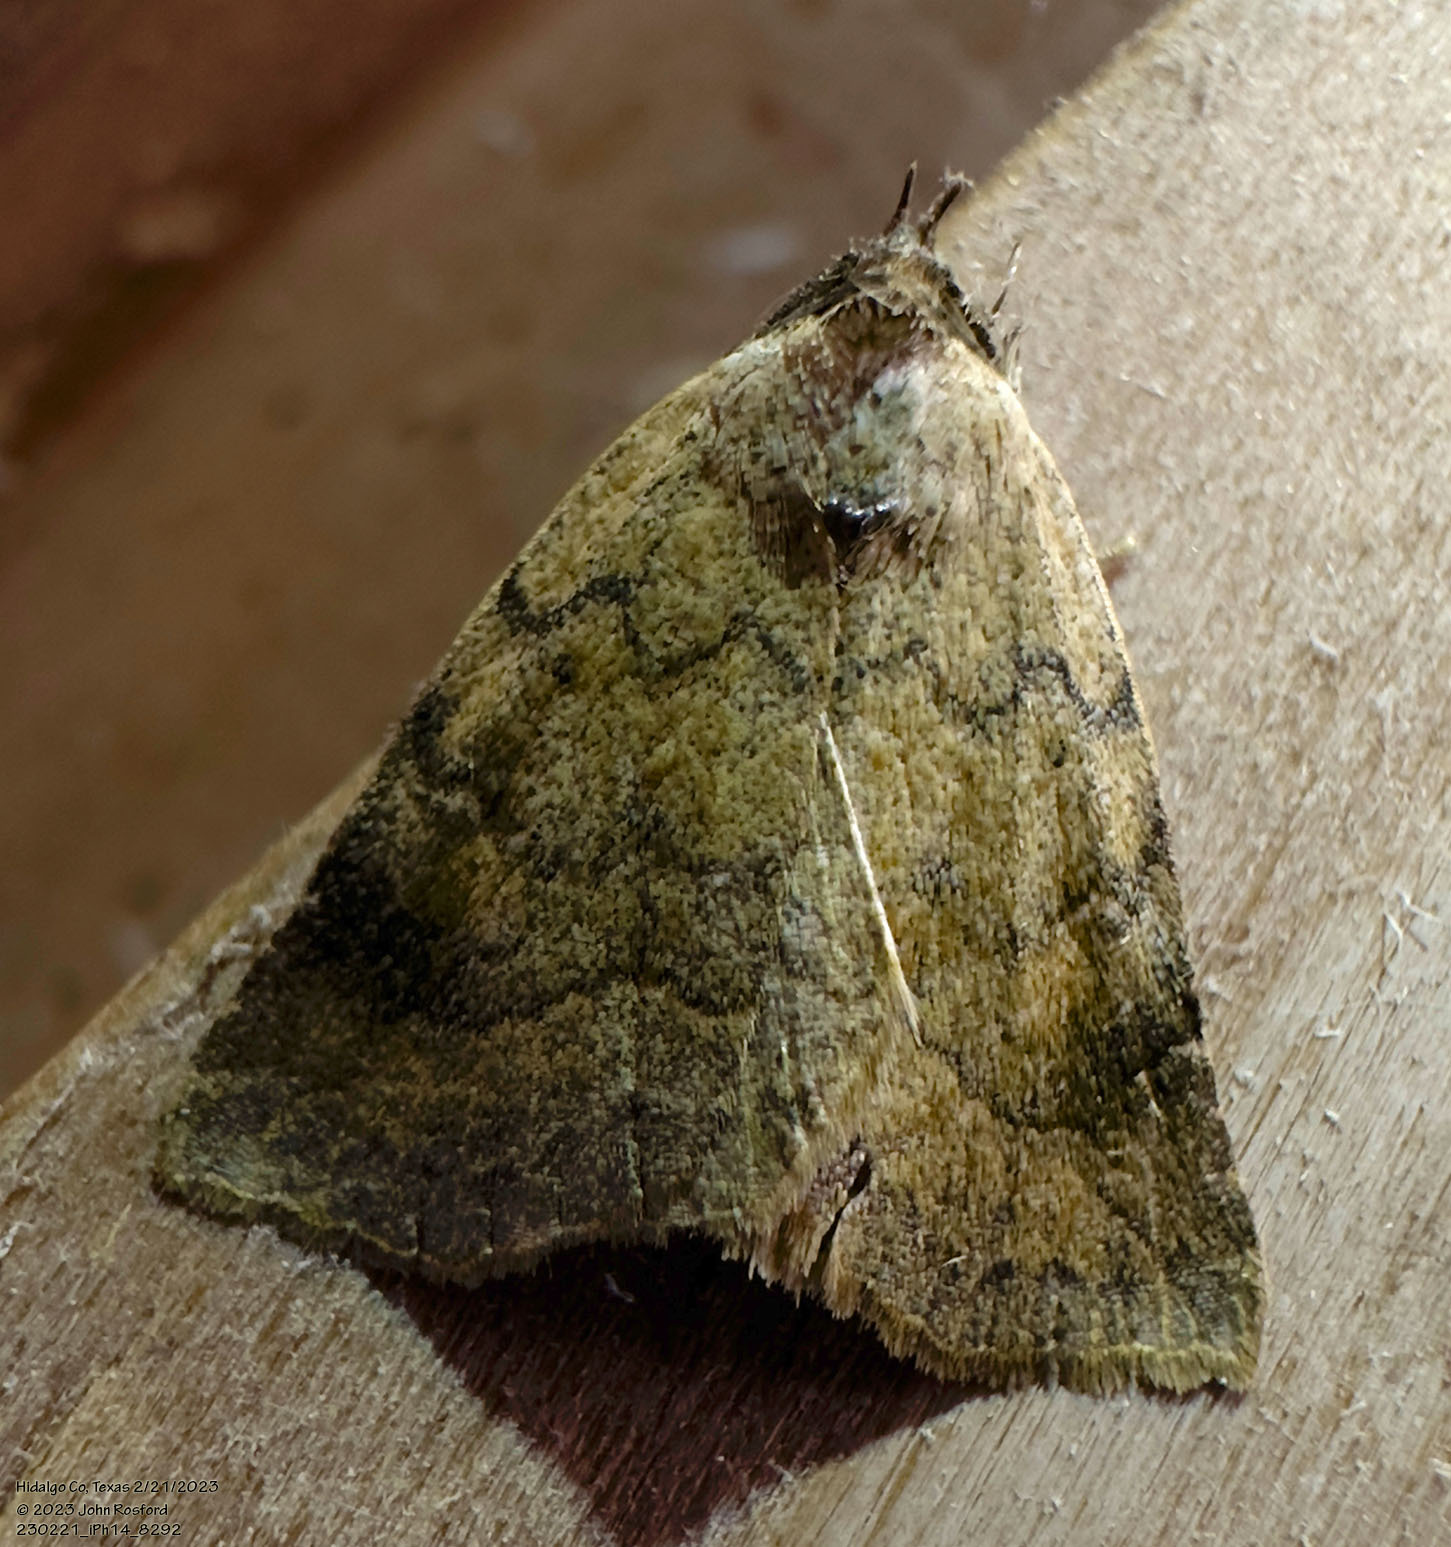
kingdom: Animalia
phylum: Arthropoda
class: Insecta
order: Lepidoptera
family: Erebidae
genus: Isogona
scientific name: Isogona texana
